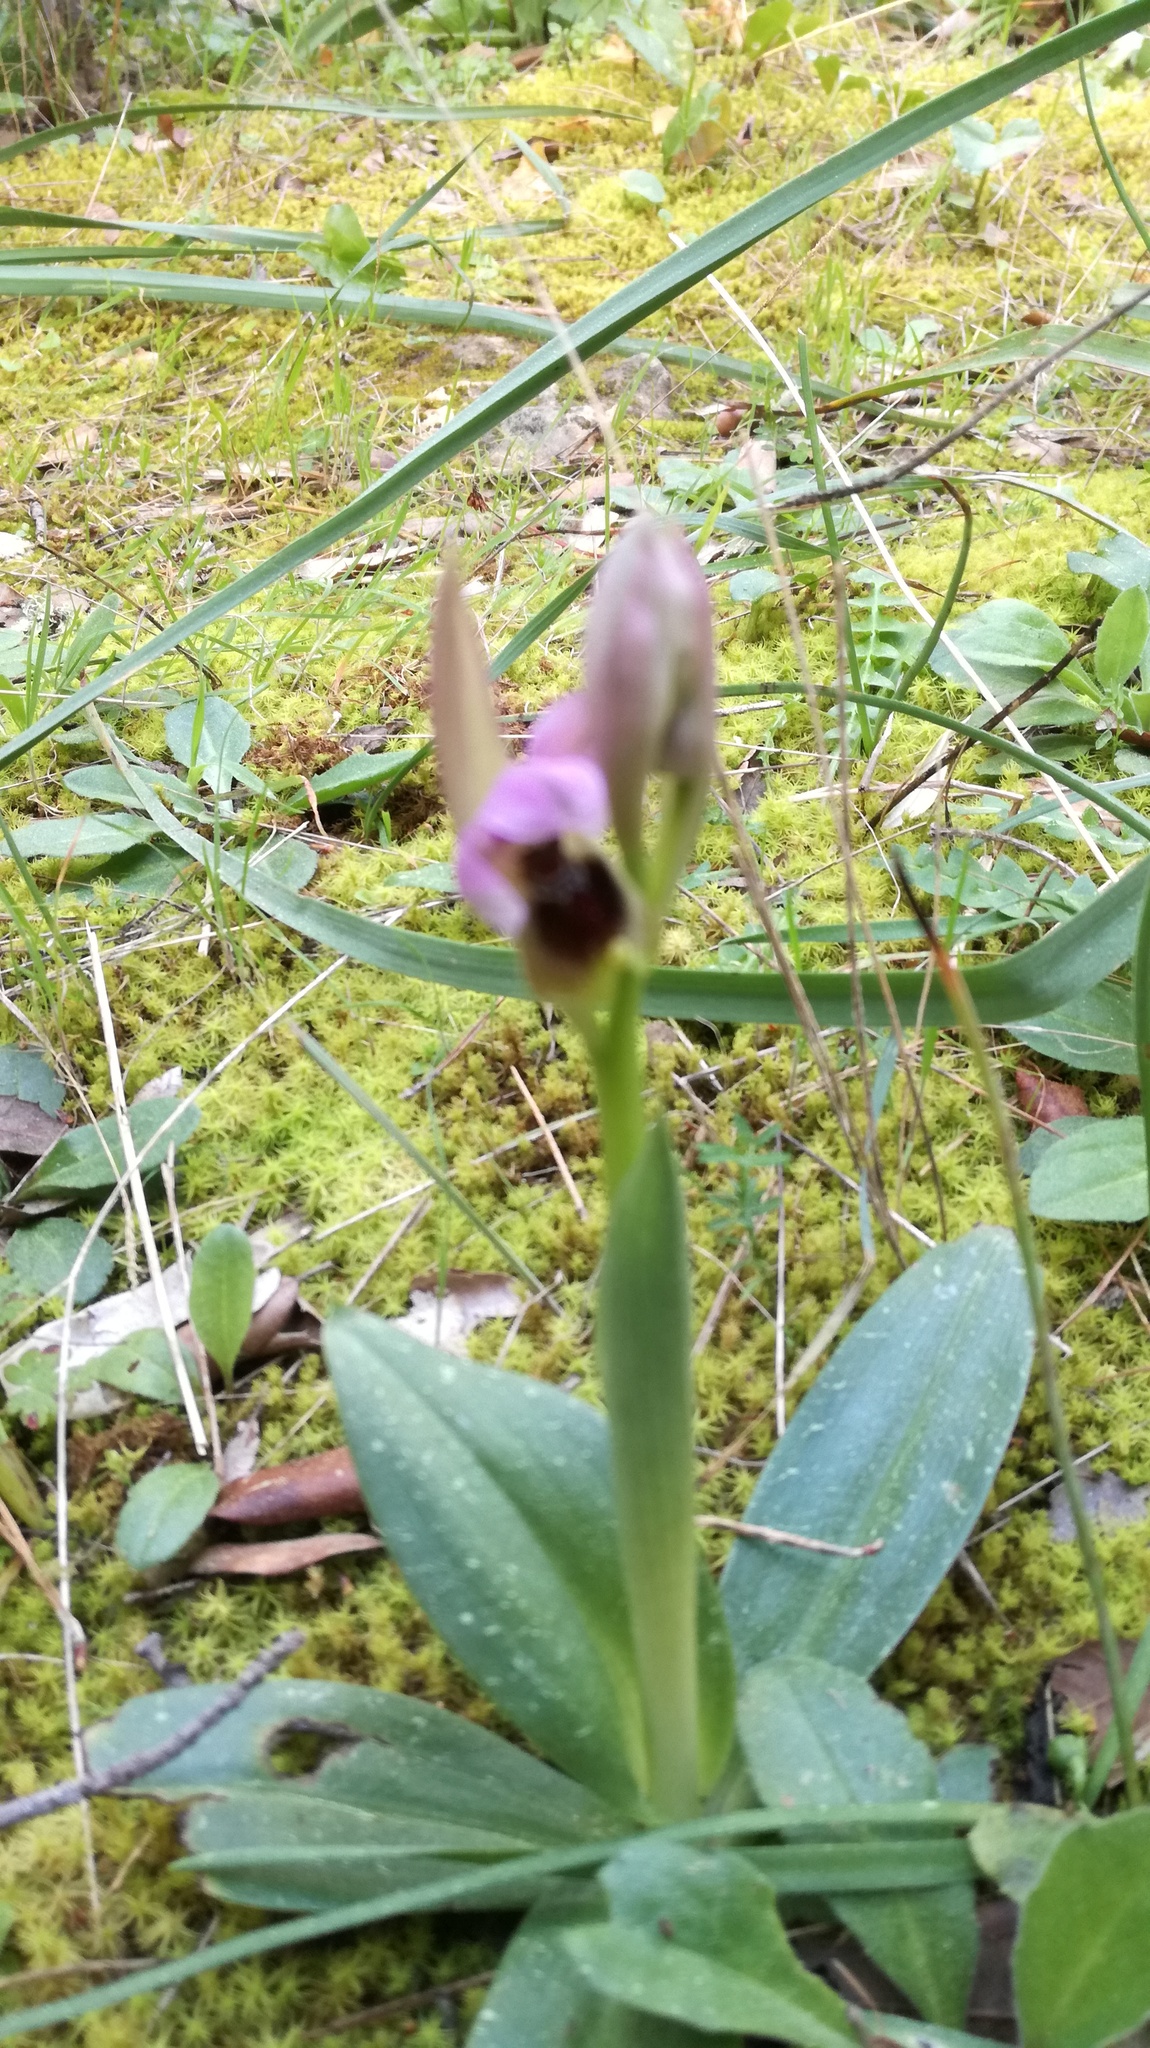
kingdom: Plantae
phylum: Tracheophyta
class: Liliopsida
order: Asparagales
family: Orchidaceae
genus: Ophrys
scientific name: Ophrys tenthredinifera
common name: Sawfly orchid
